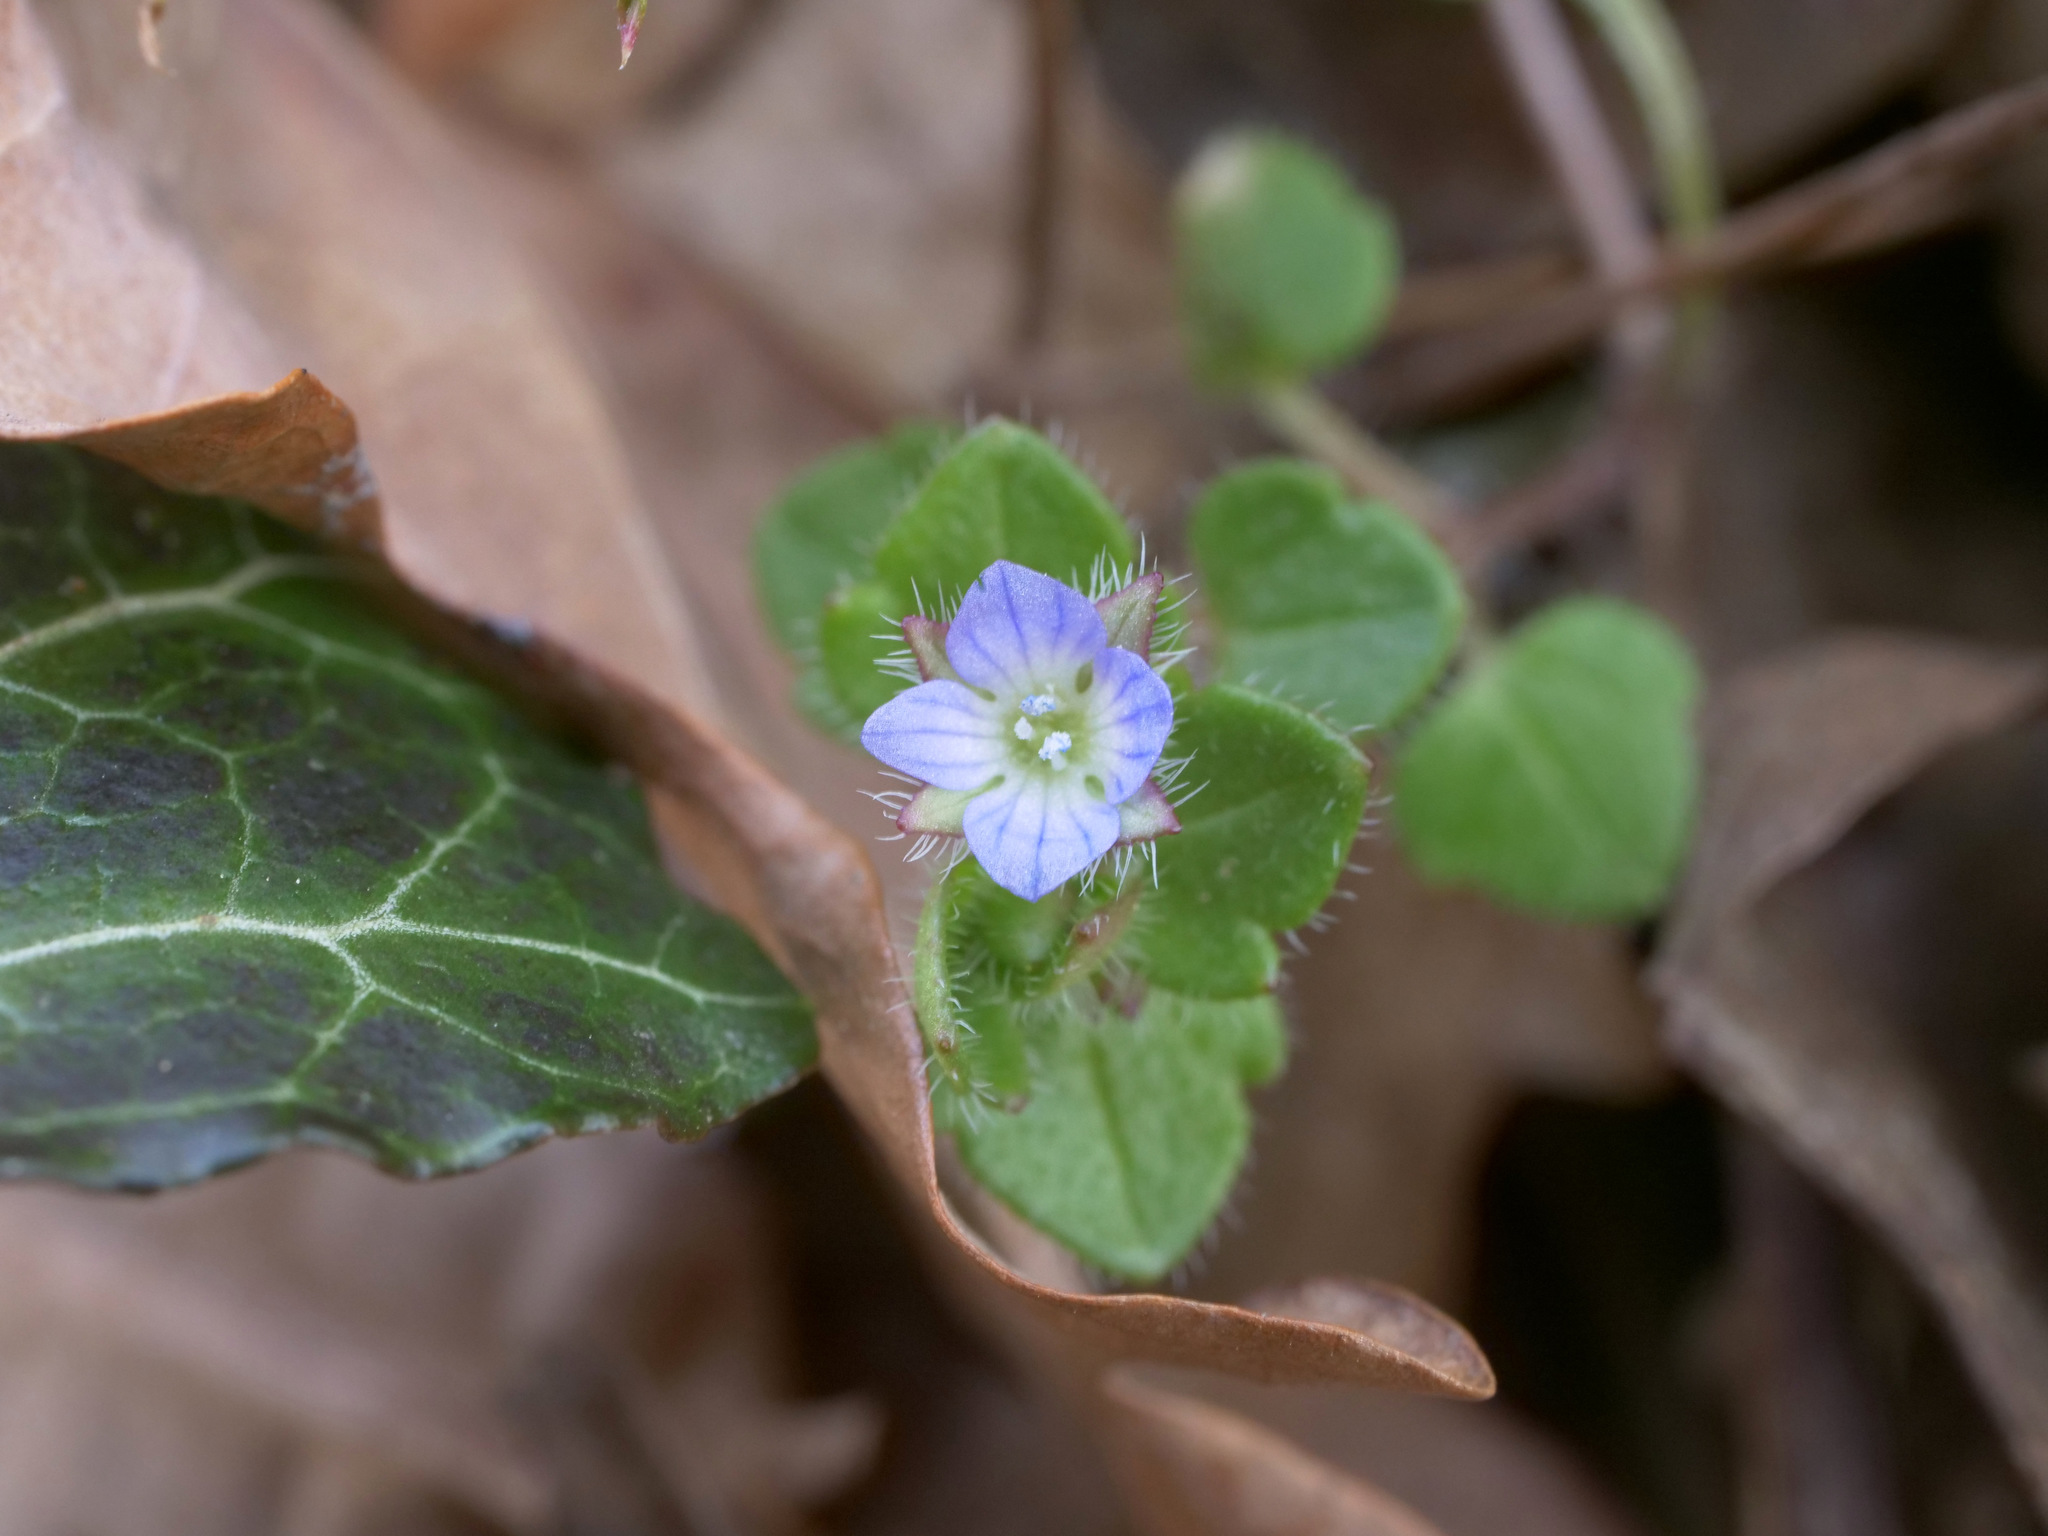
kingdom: Plantae
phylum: Tracheophyta
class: Magnoliopsida
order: Lamiales
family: Plantaginaceae
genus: Veronica
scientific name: Veronica hederifolia
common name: Ivy-leaved speedwell
